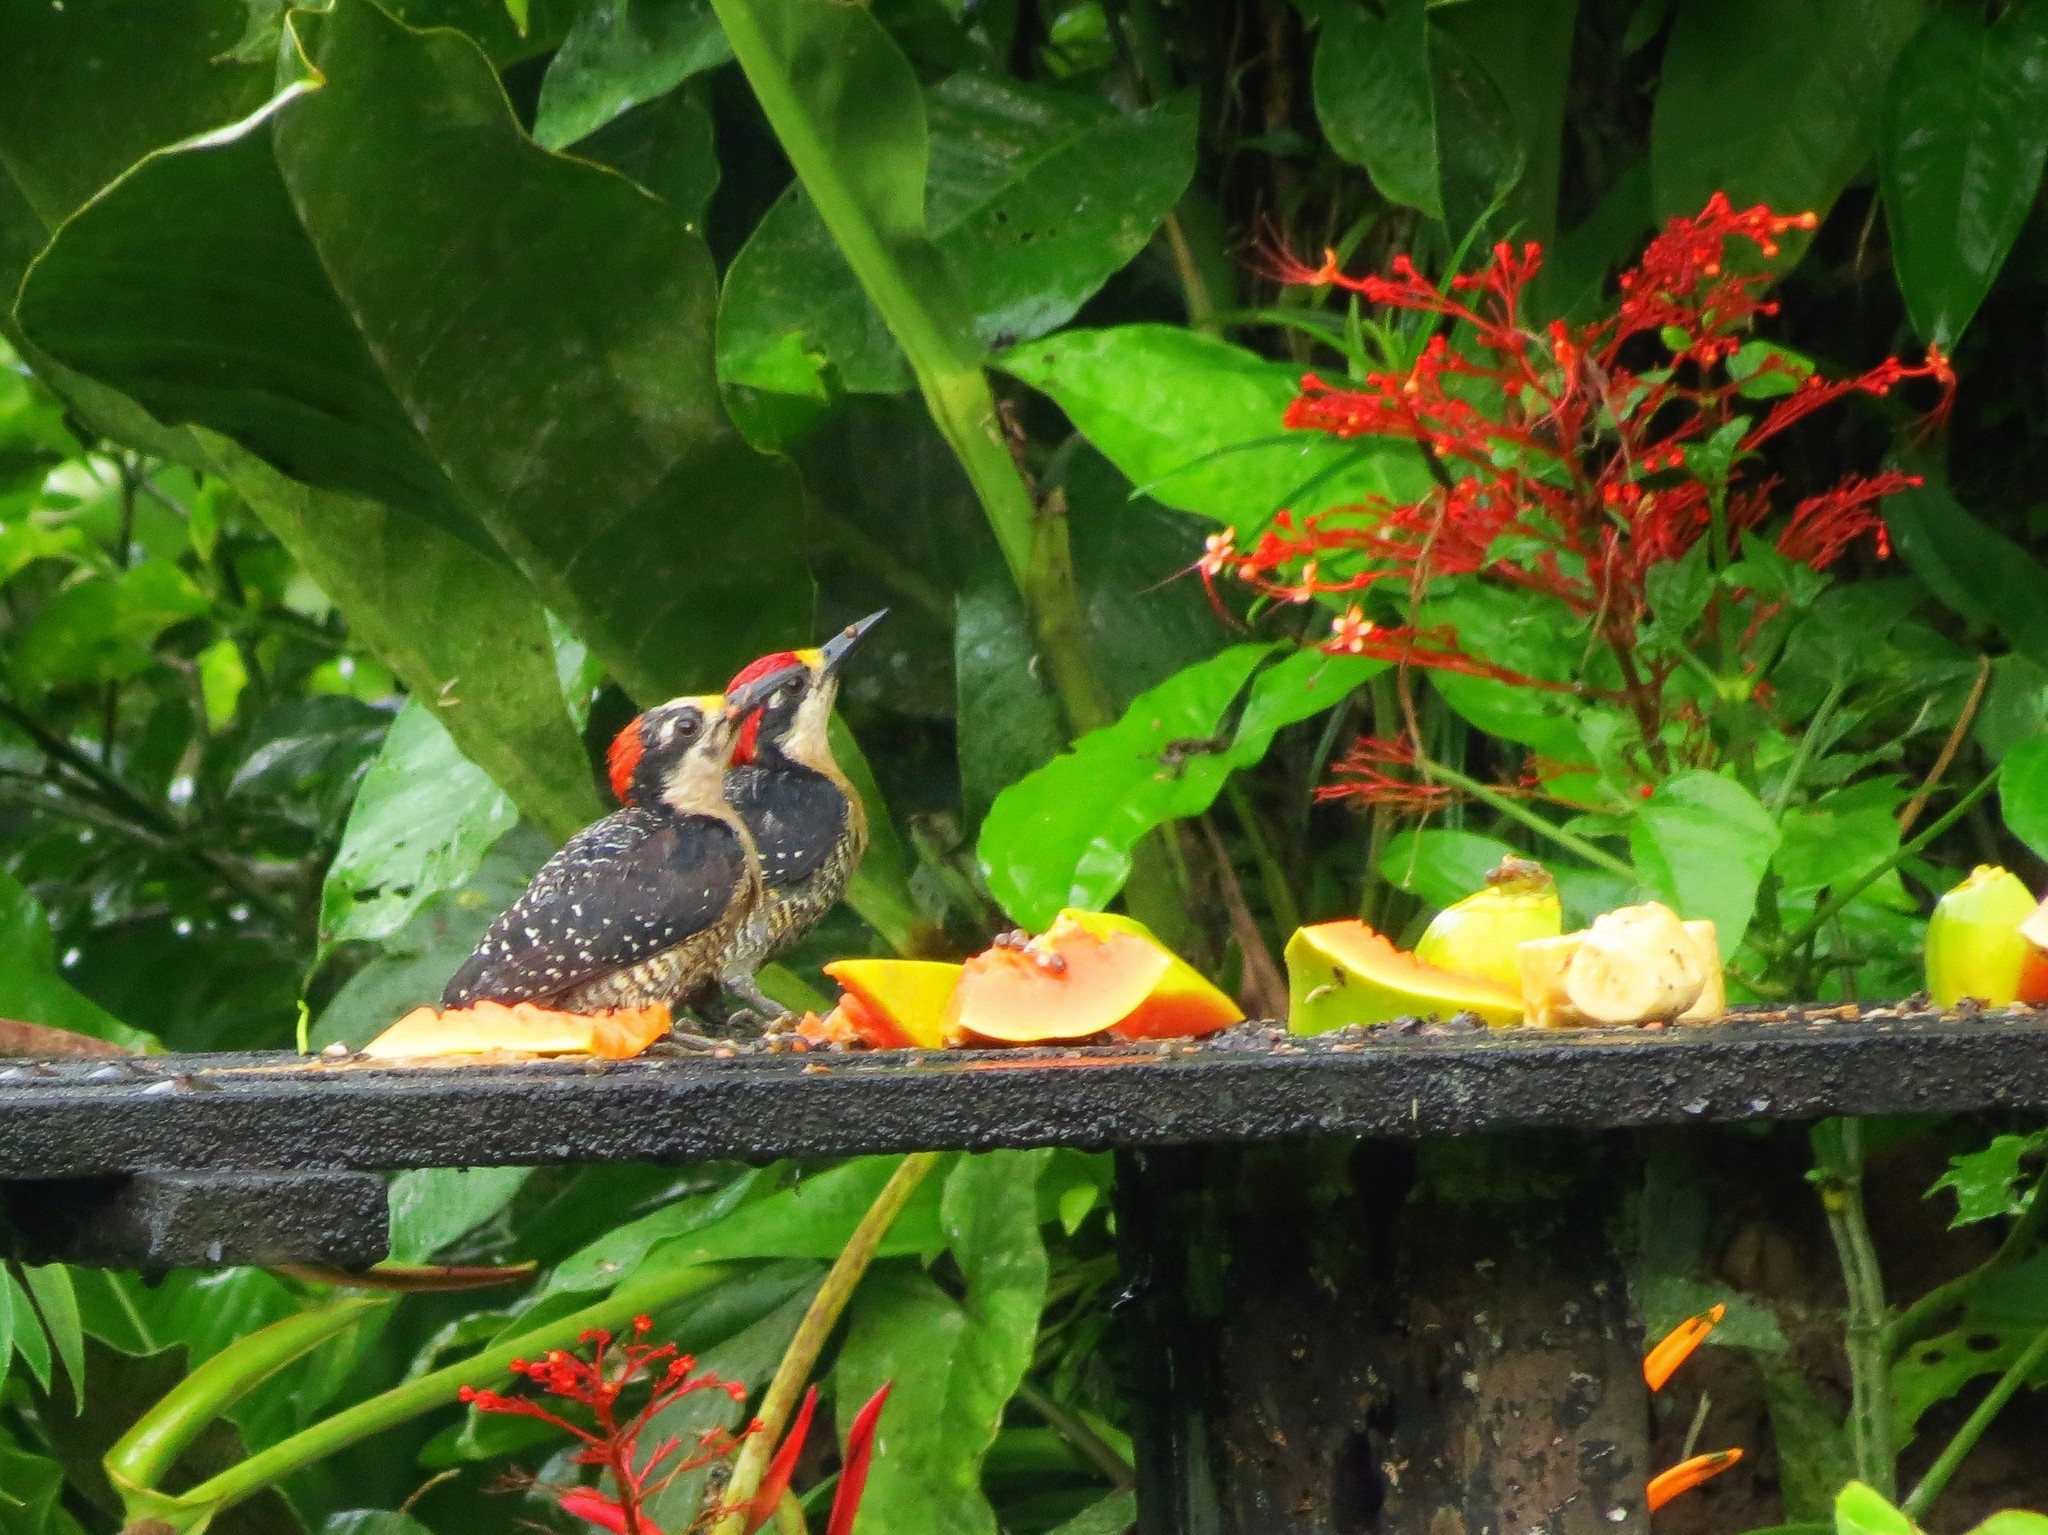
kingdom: Animalia
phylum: Chordata
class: Aves
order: Piciformes
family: Picidae
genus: Melanerpes
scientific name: Melanerpes pucherani
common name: Black-cheeked woodpecker
